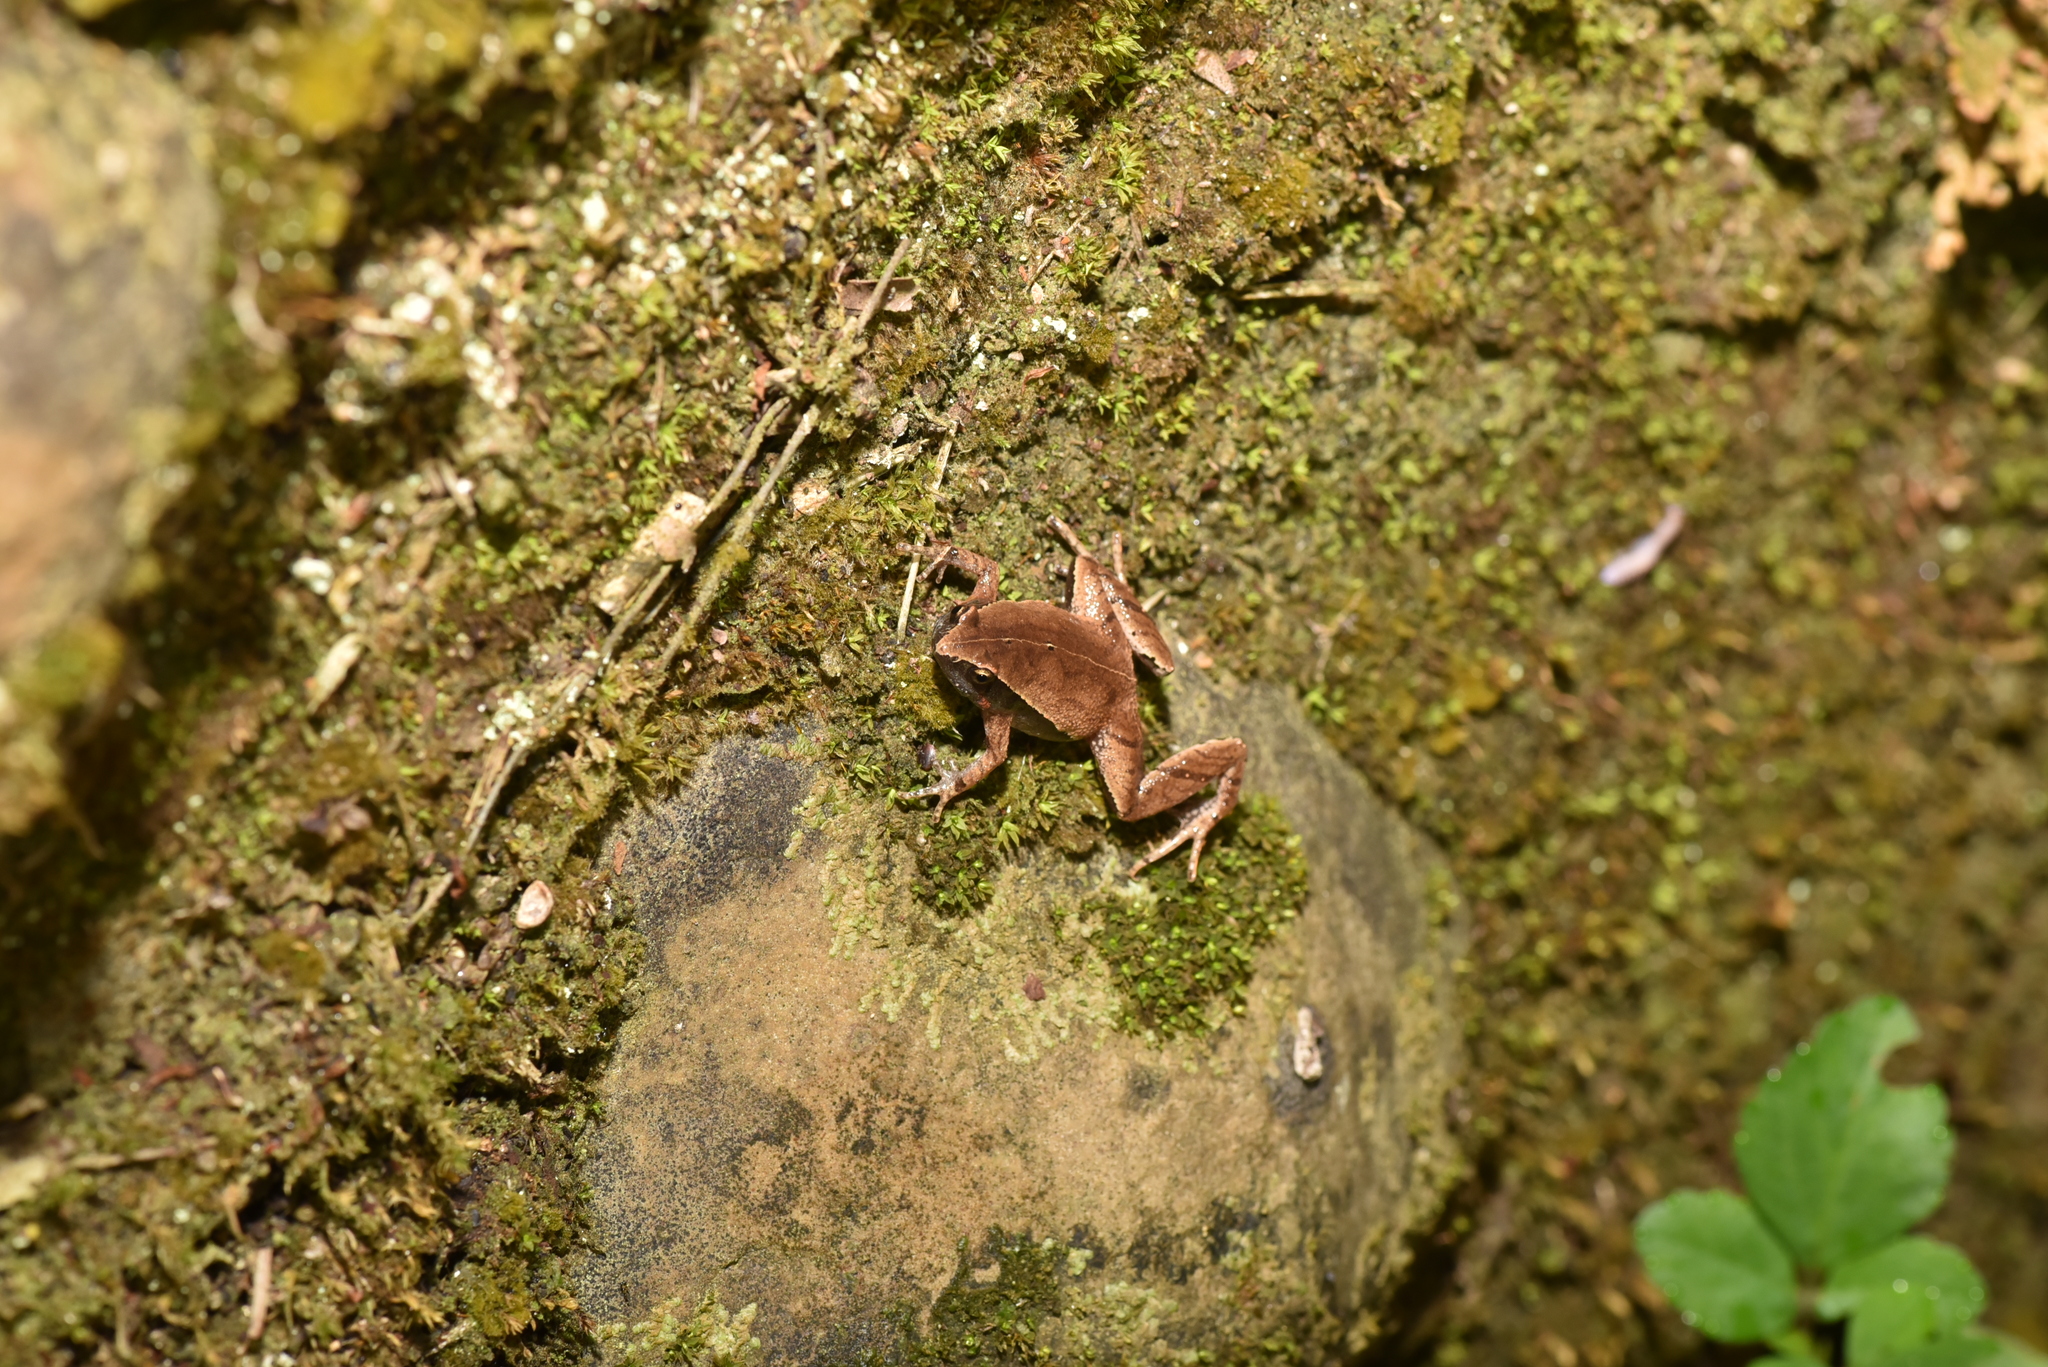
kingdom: Animalia
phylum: Chordata
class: Amphibia
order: Anura
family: Microhylidae
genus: Microhyla
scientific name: Microhyla heymonsi
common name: Taiwan rice frog,dark sided chorus frog
